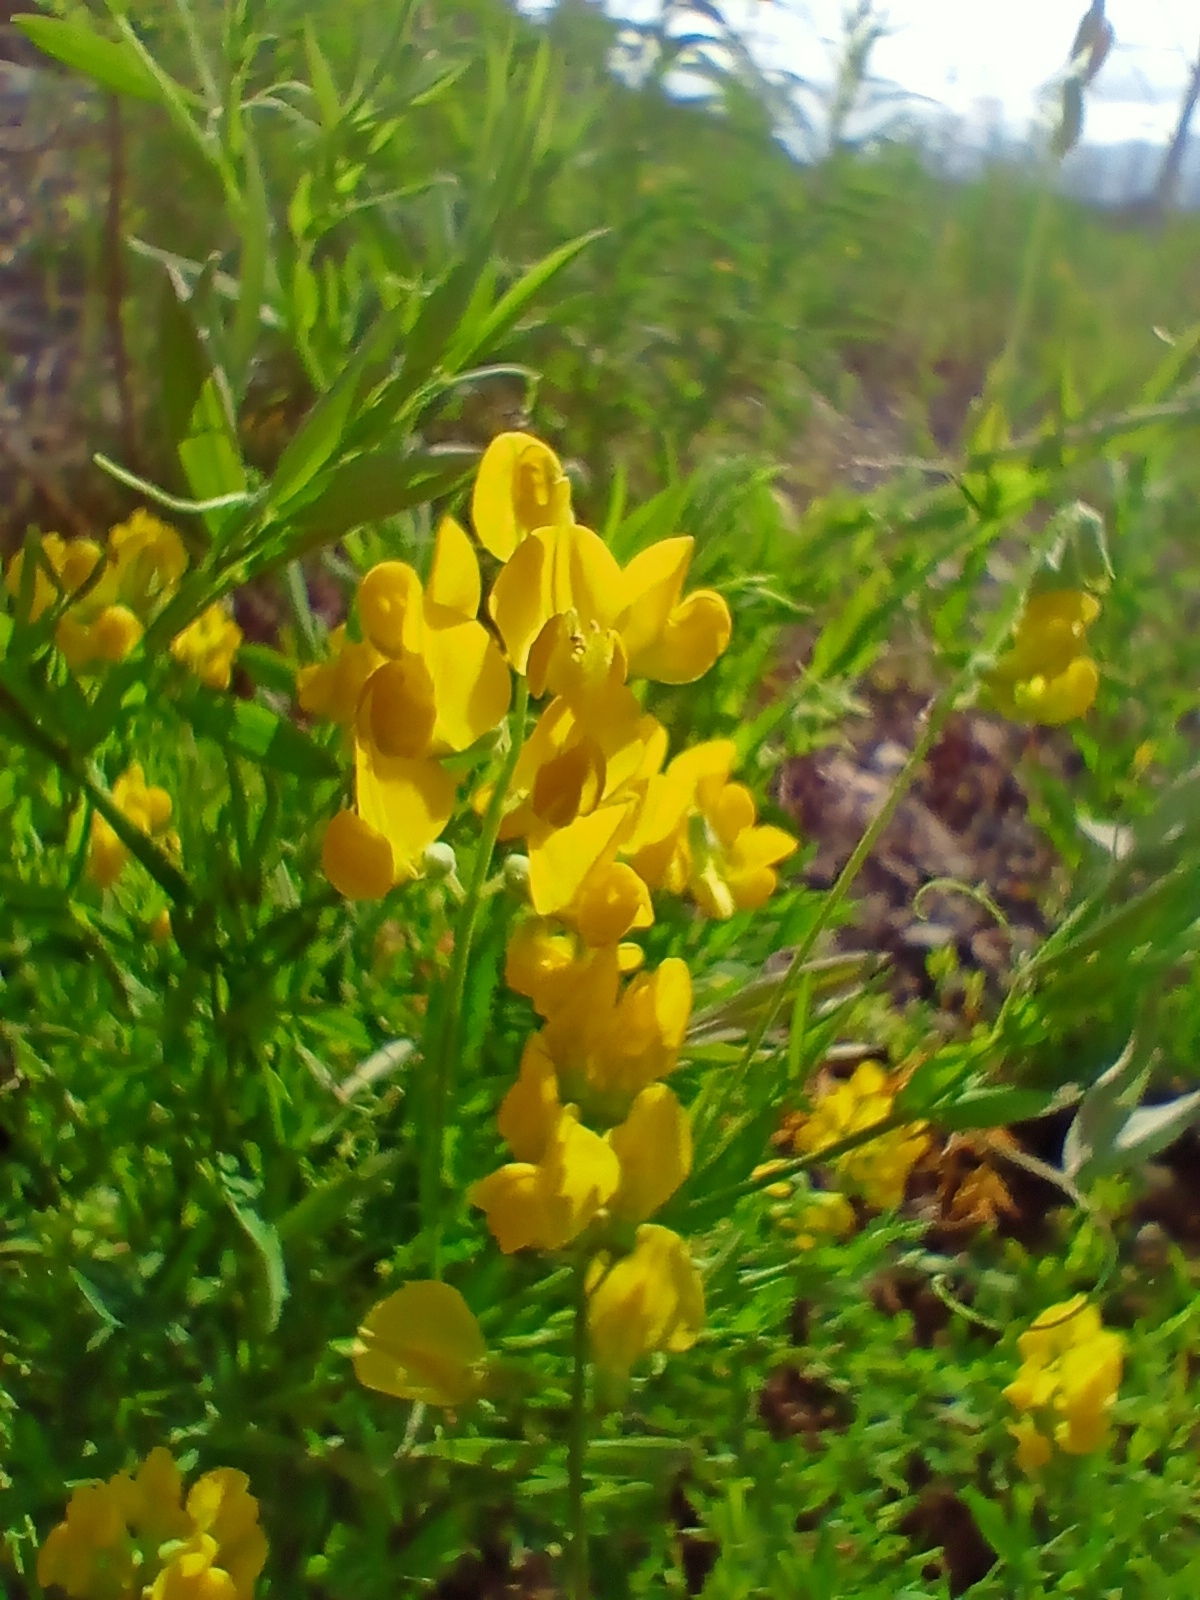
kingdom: Plantae
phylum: Tracheophyta
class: Magnoliopsida
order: Fabales
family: Fabaceae
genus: Lathyrus
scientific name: Lathyrus pratensis
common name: Meadow vetchling
